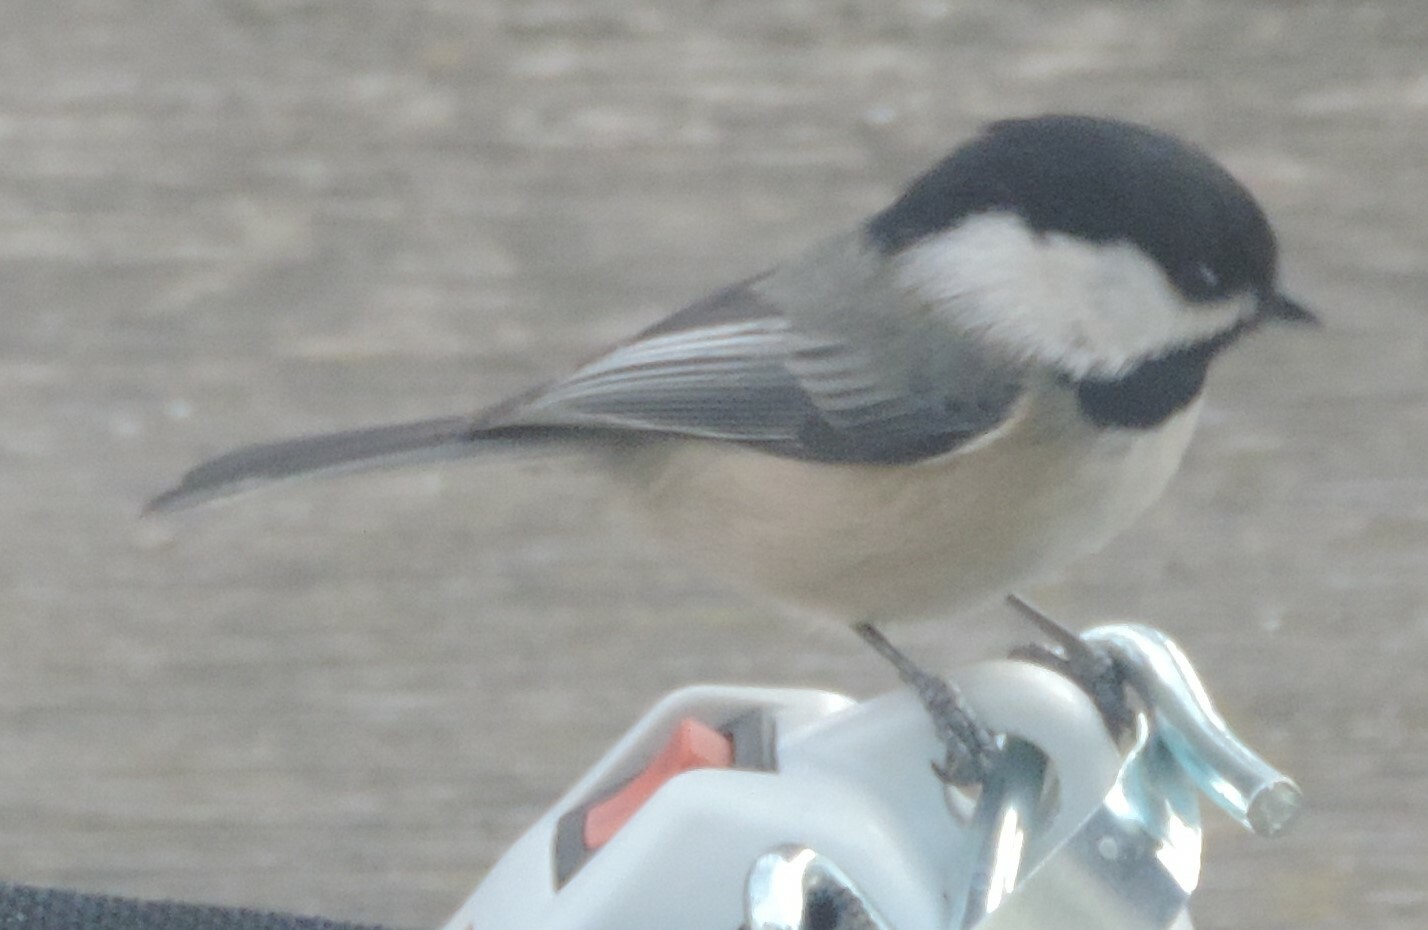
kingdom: Animalia
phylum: Chordata
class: Aves
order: Passeriformes
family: Paridae
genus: Poecile
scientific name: Poecile atricapillus
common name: Black-capped chickadee
